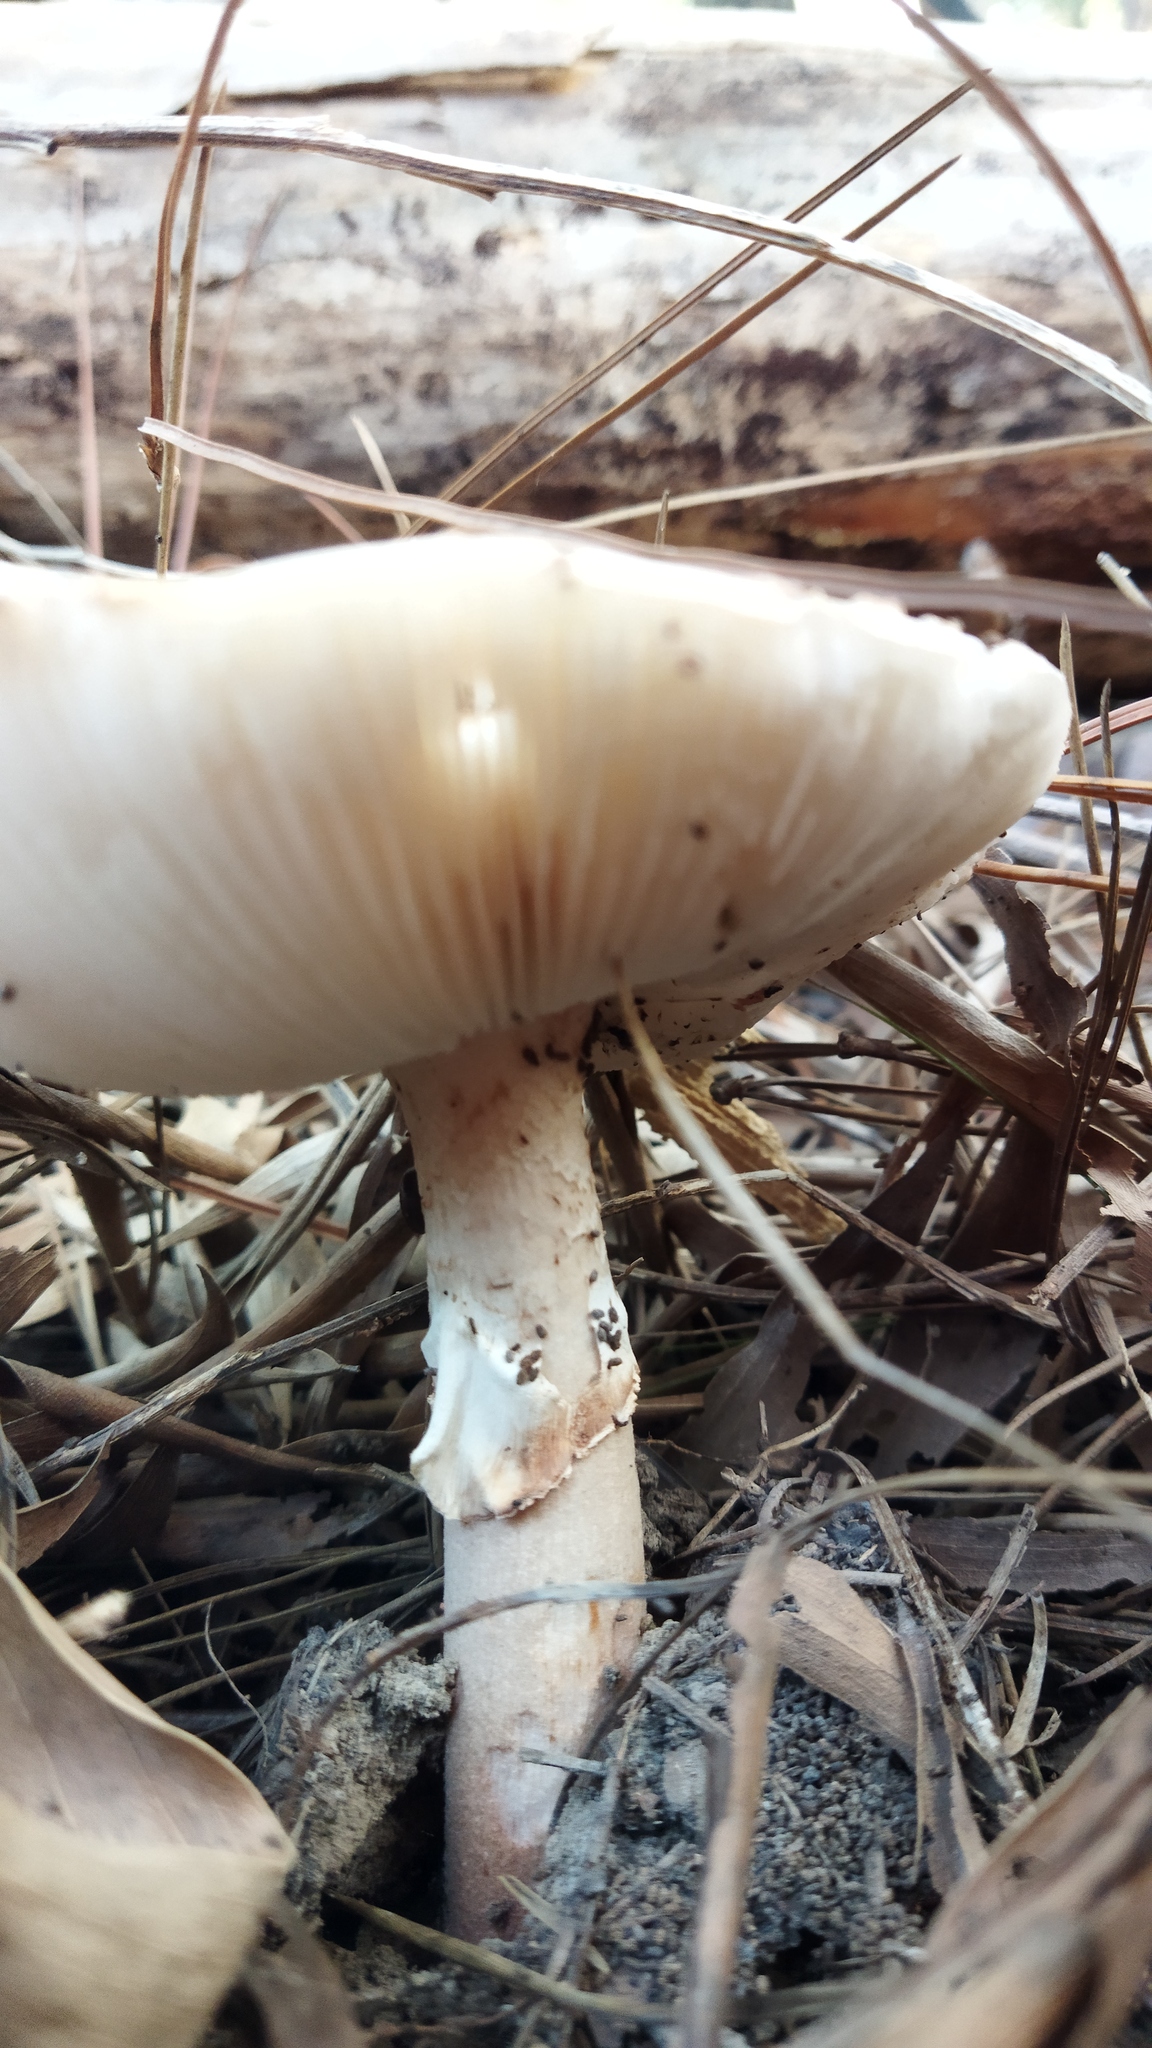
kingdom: Fungi
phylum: Basidiomycota
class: Agaricomycetes
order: Agaricales
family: Amanitaceae
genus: Amanita
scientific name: Amanita rubescens
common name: Blusher
